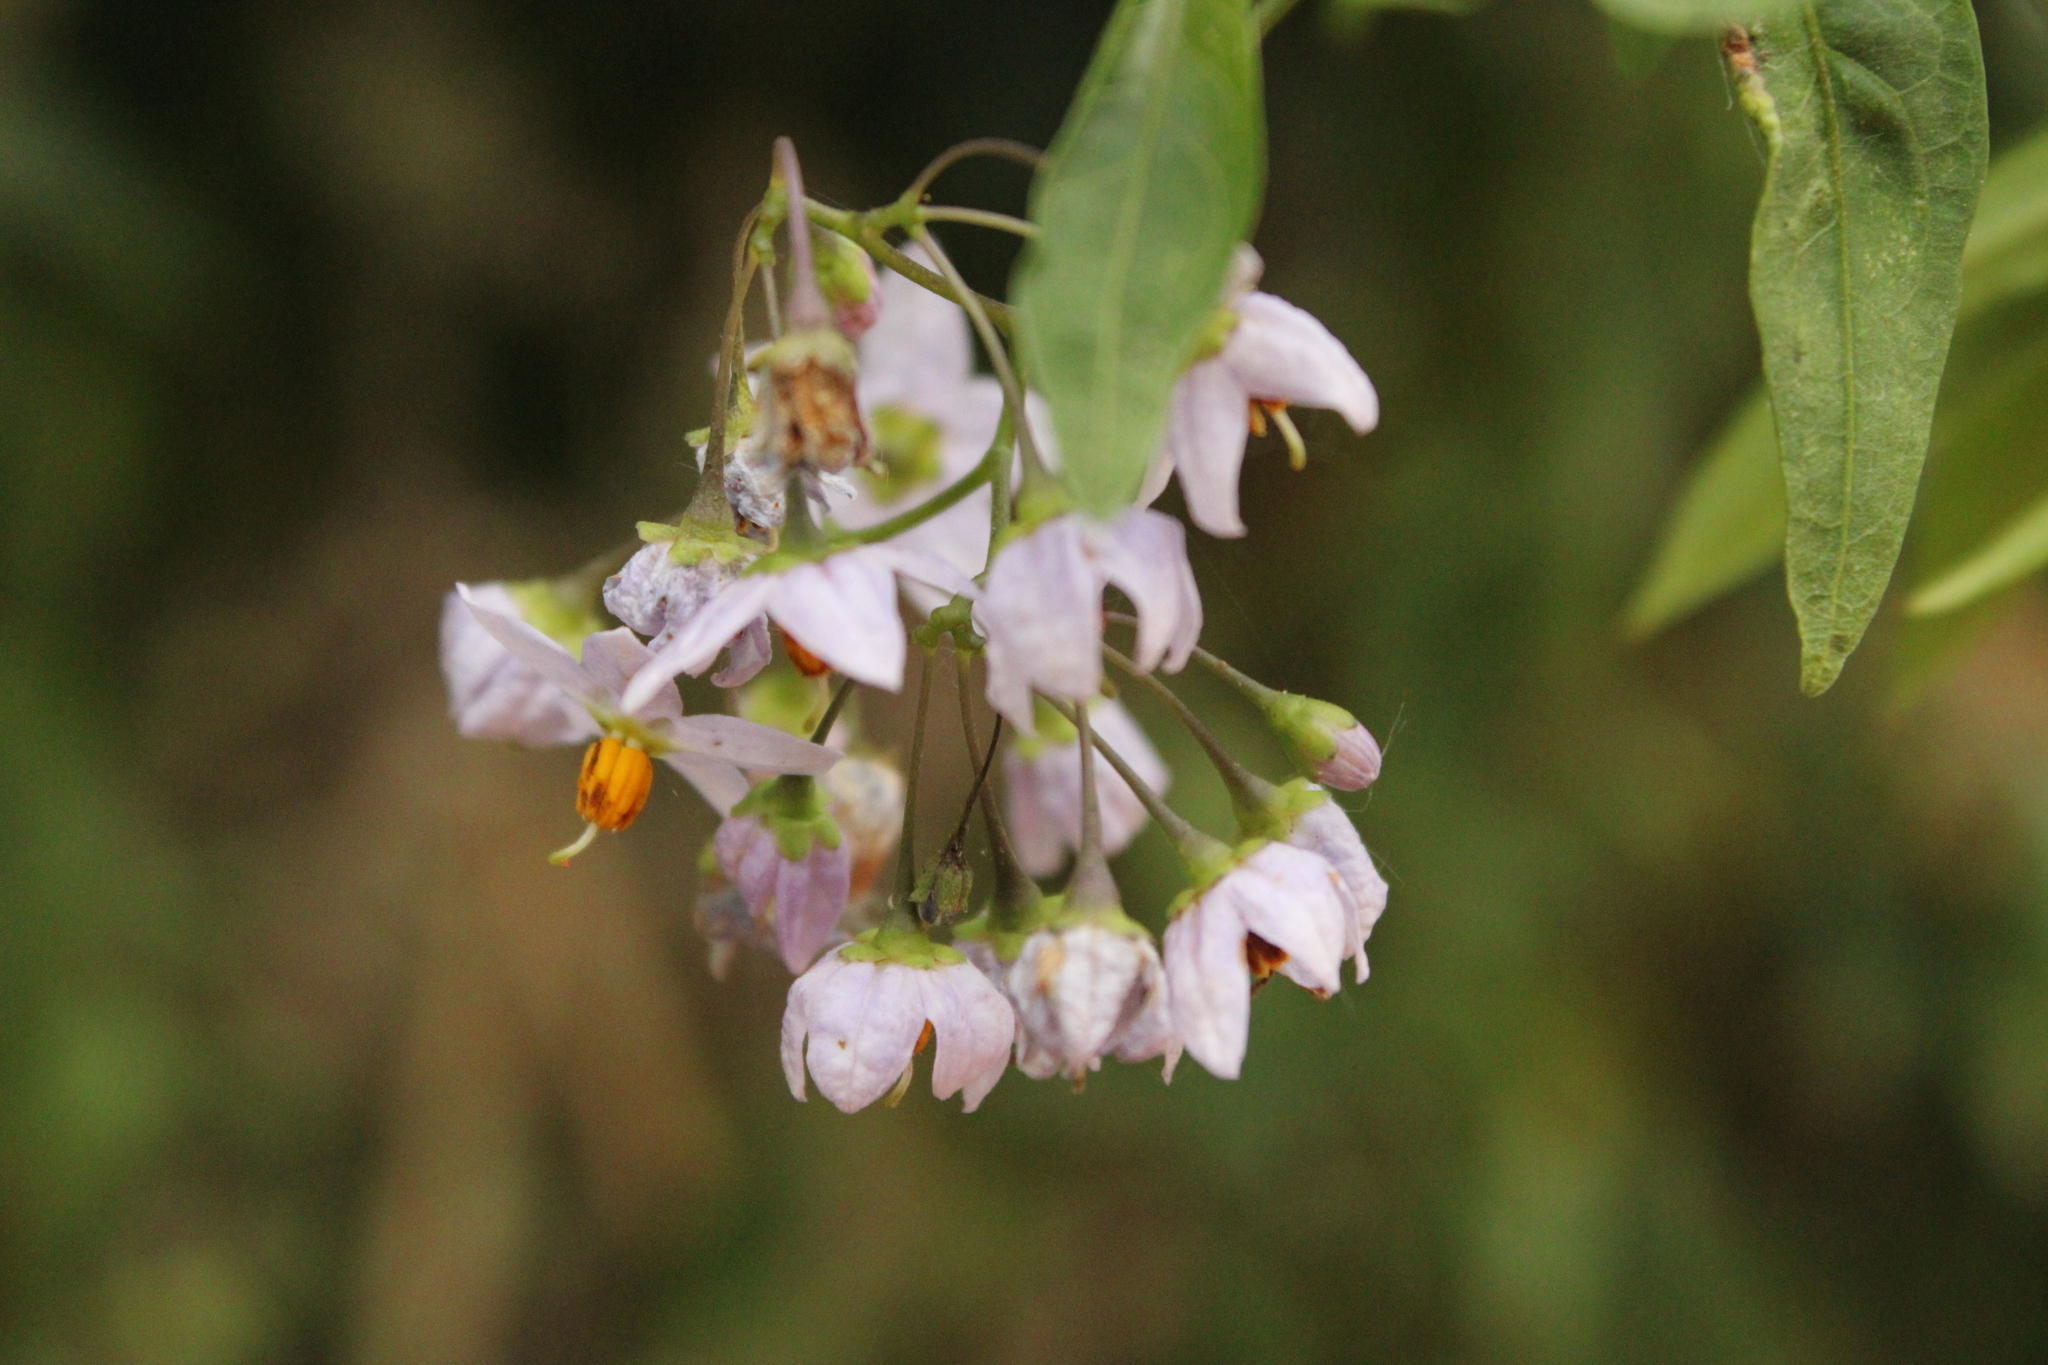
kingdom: Plantae
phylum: Tracheophyta
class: Magnoliopsida
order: Solanales
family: Solanaceae
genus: Solanum
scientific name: Solanum laxum
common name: Nightshade
